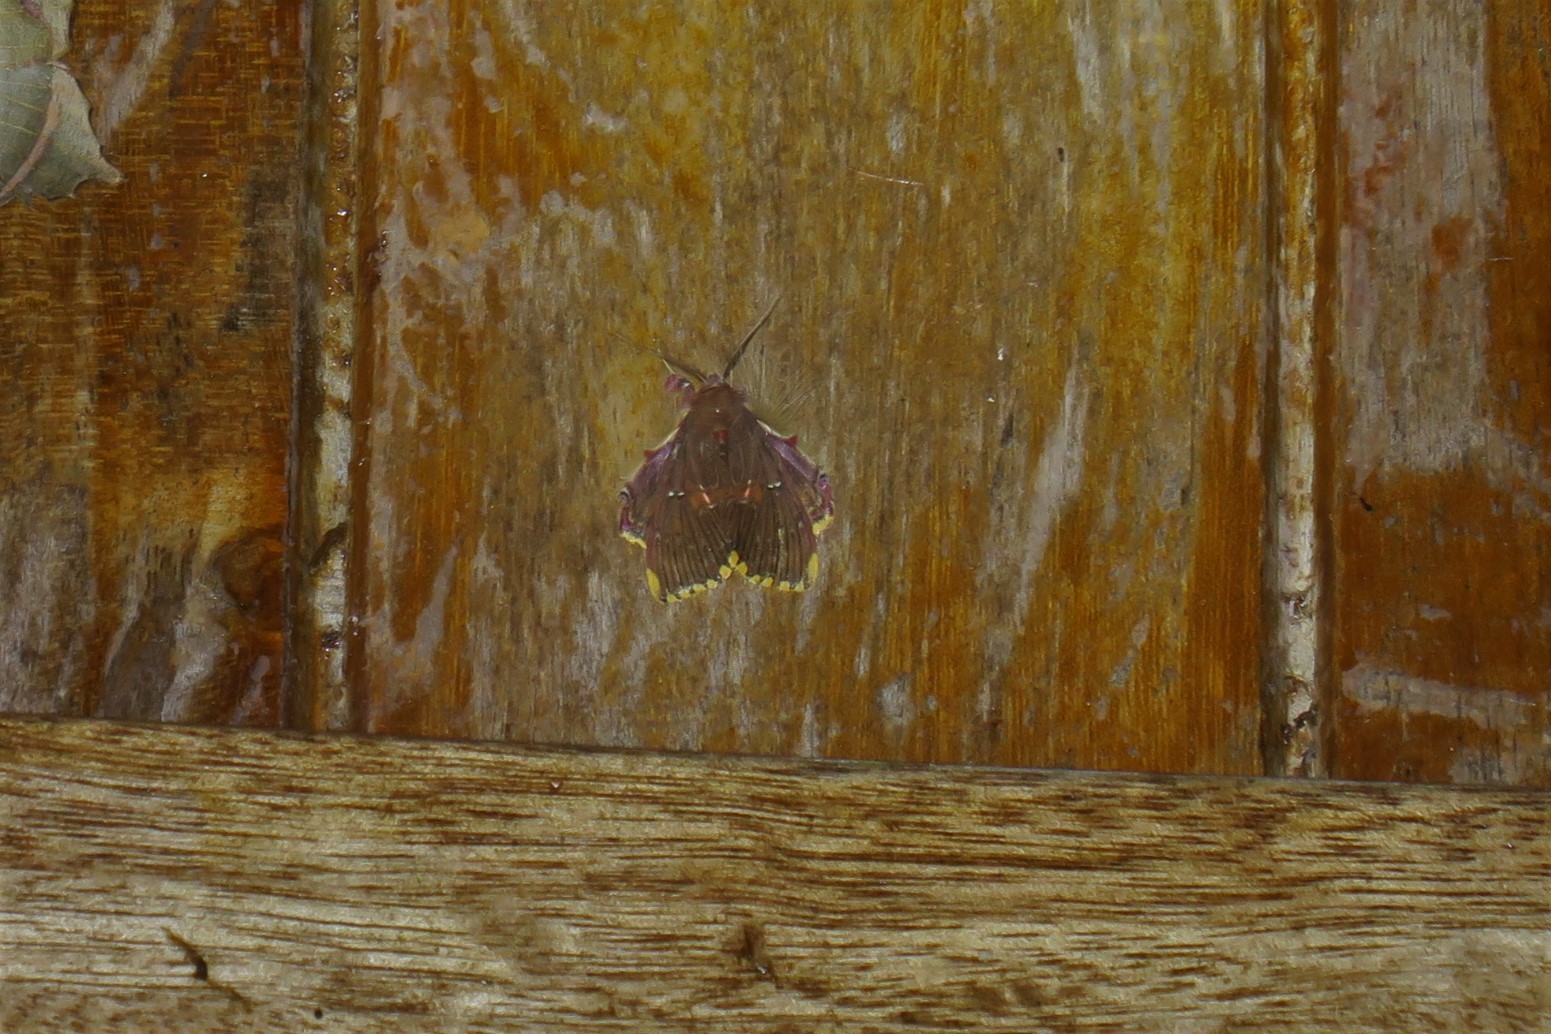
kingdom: Animalia
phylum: Arthropoda
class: Insecta
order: Lepidoptera
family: Erebidae
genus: Sosxetra
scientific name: Sosxetra grata
